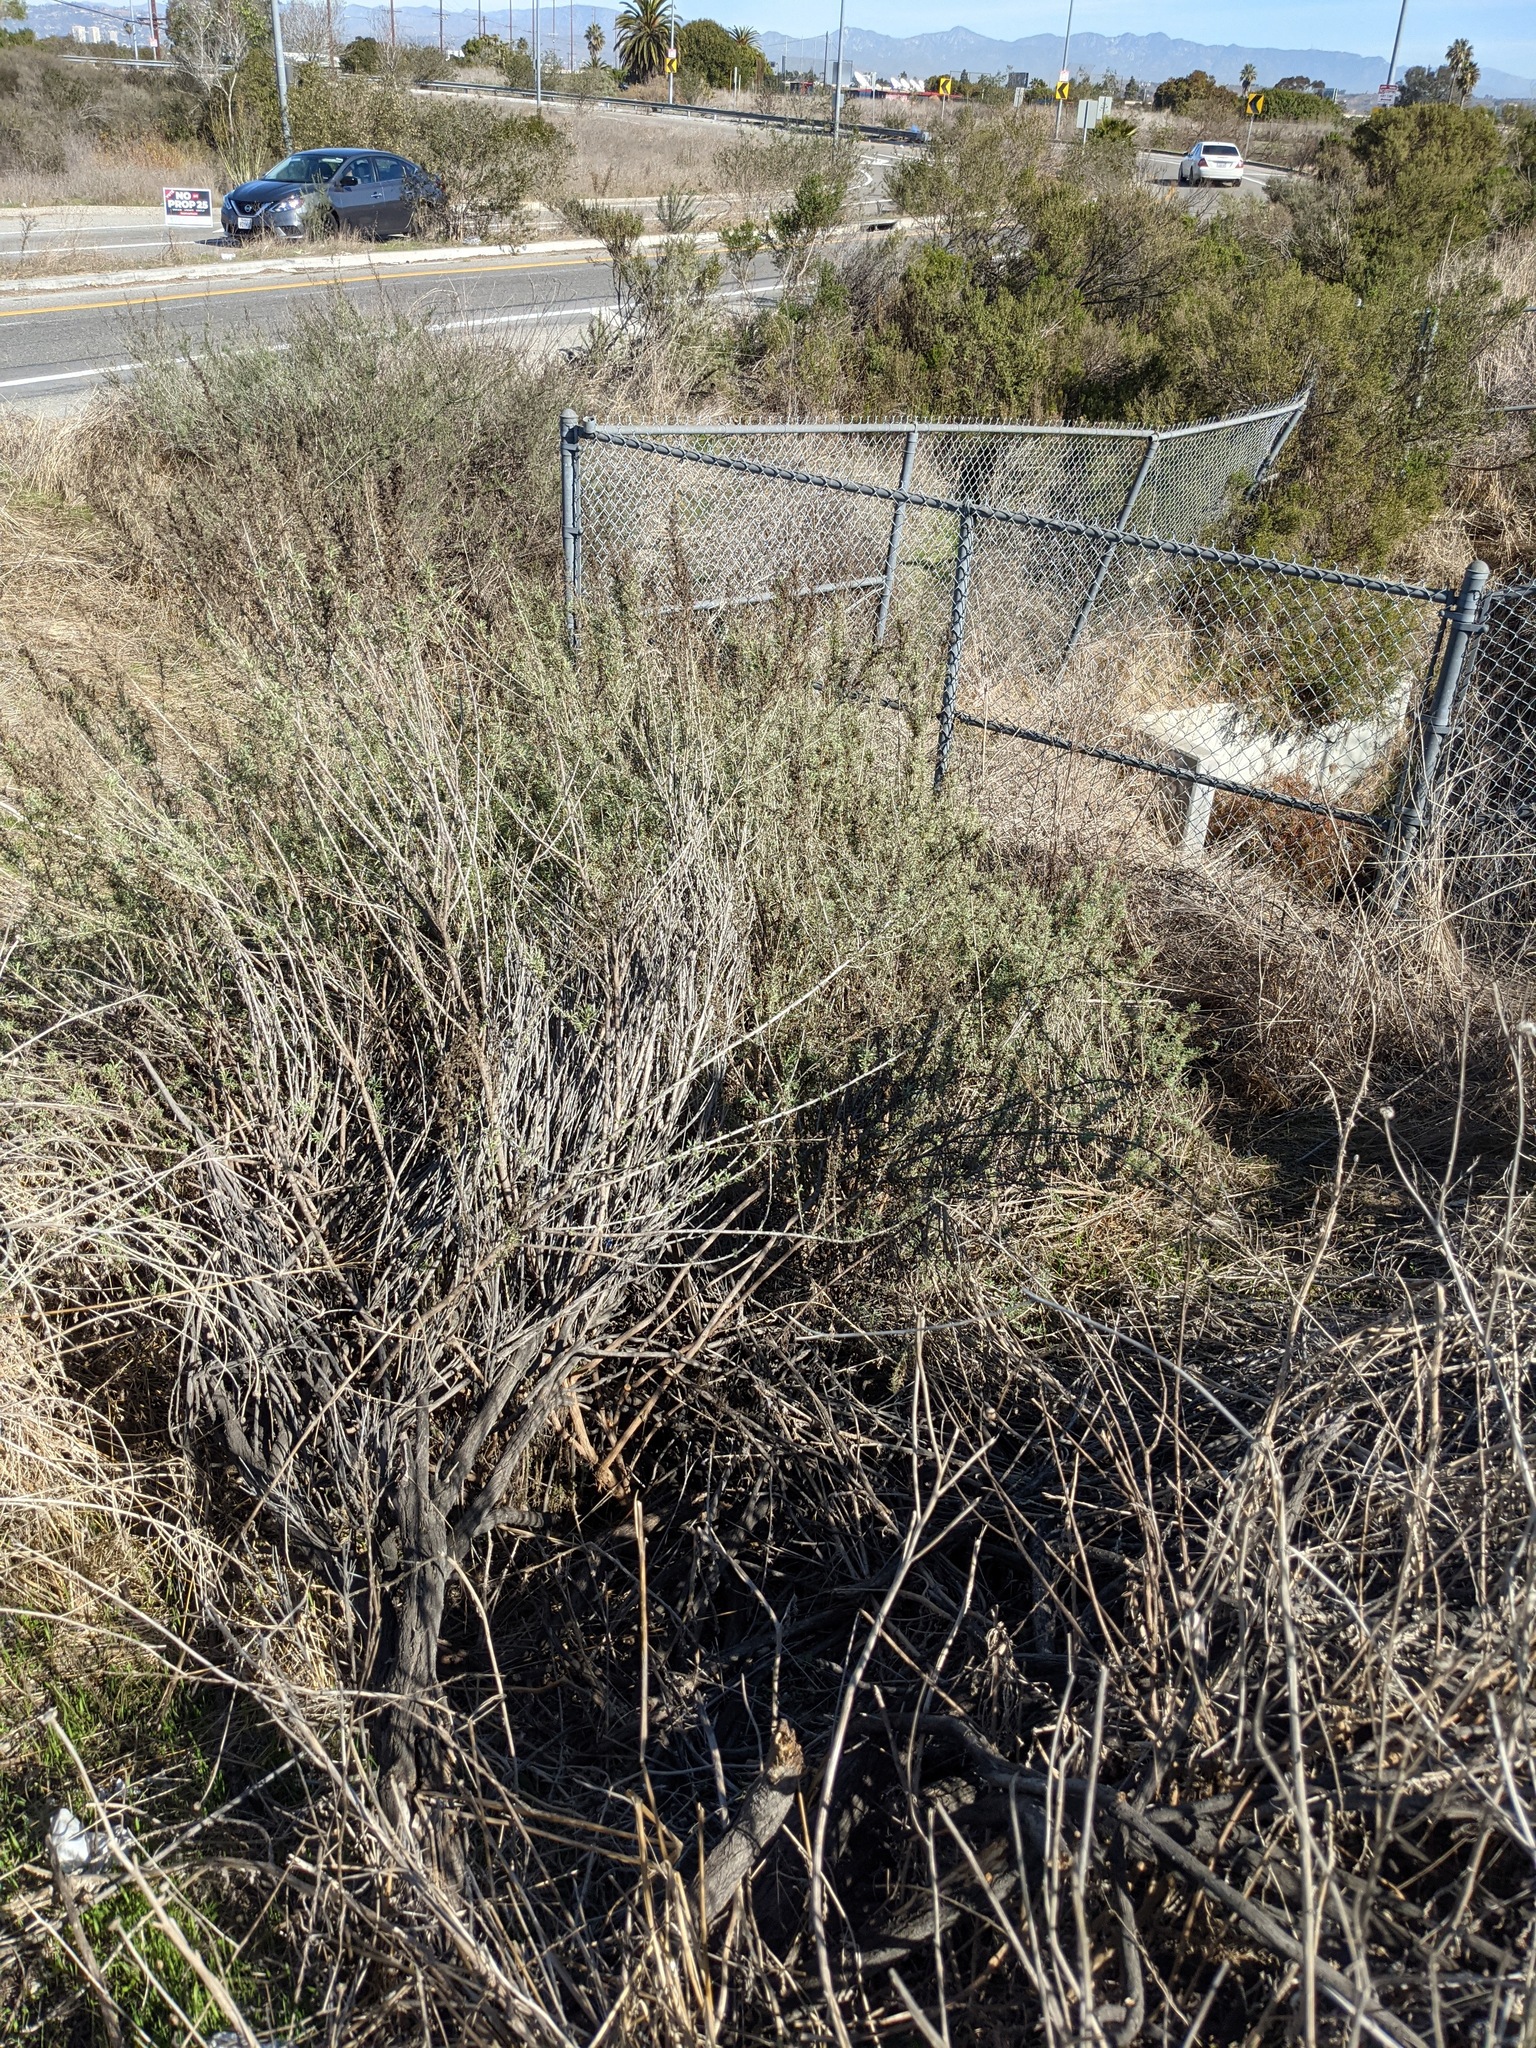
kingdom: Plantae
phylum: Tracheophyta
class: Magnoliopsida
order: Asterales
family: Asteraceae
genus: Artemisia
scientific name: Artemisia californica
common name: California sagebrush
